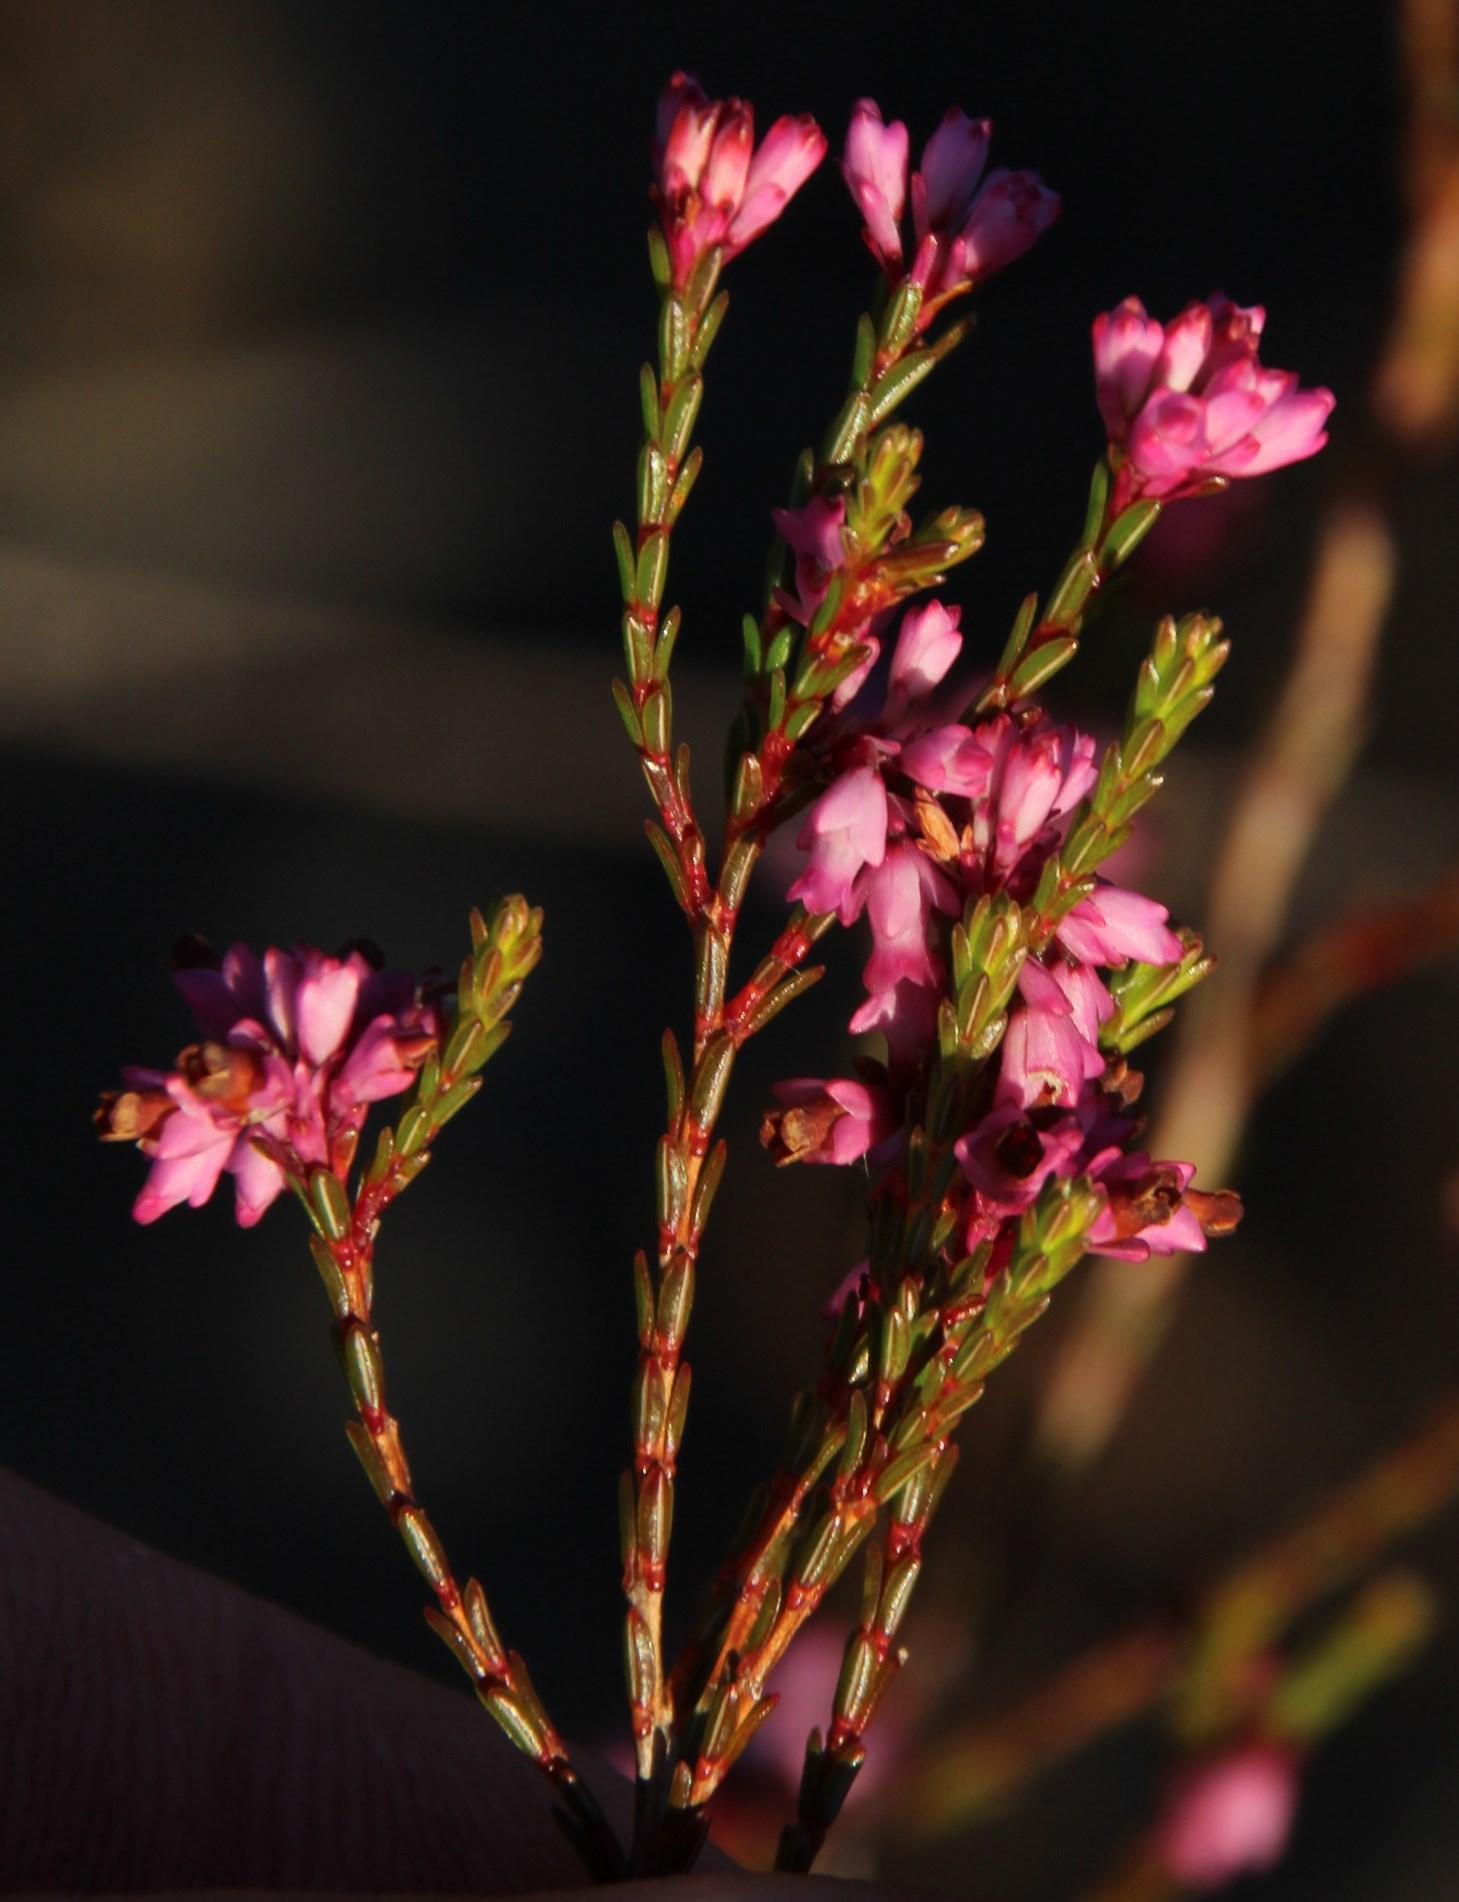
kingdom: Plantae
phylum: Tracheophyta
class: Magnoliopsida
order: Ericales
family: Ericaceae
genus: Erica
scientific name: Erica corifolia
